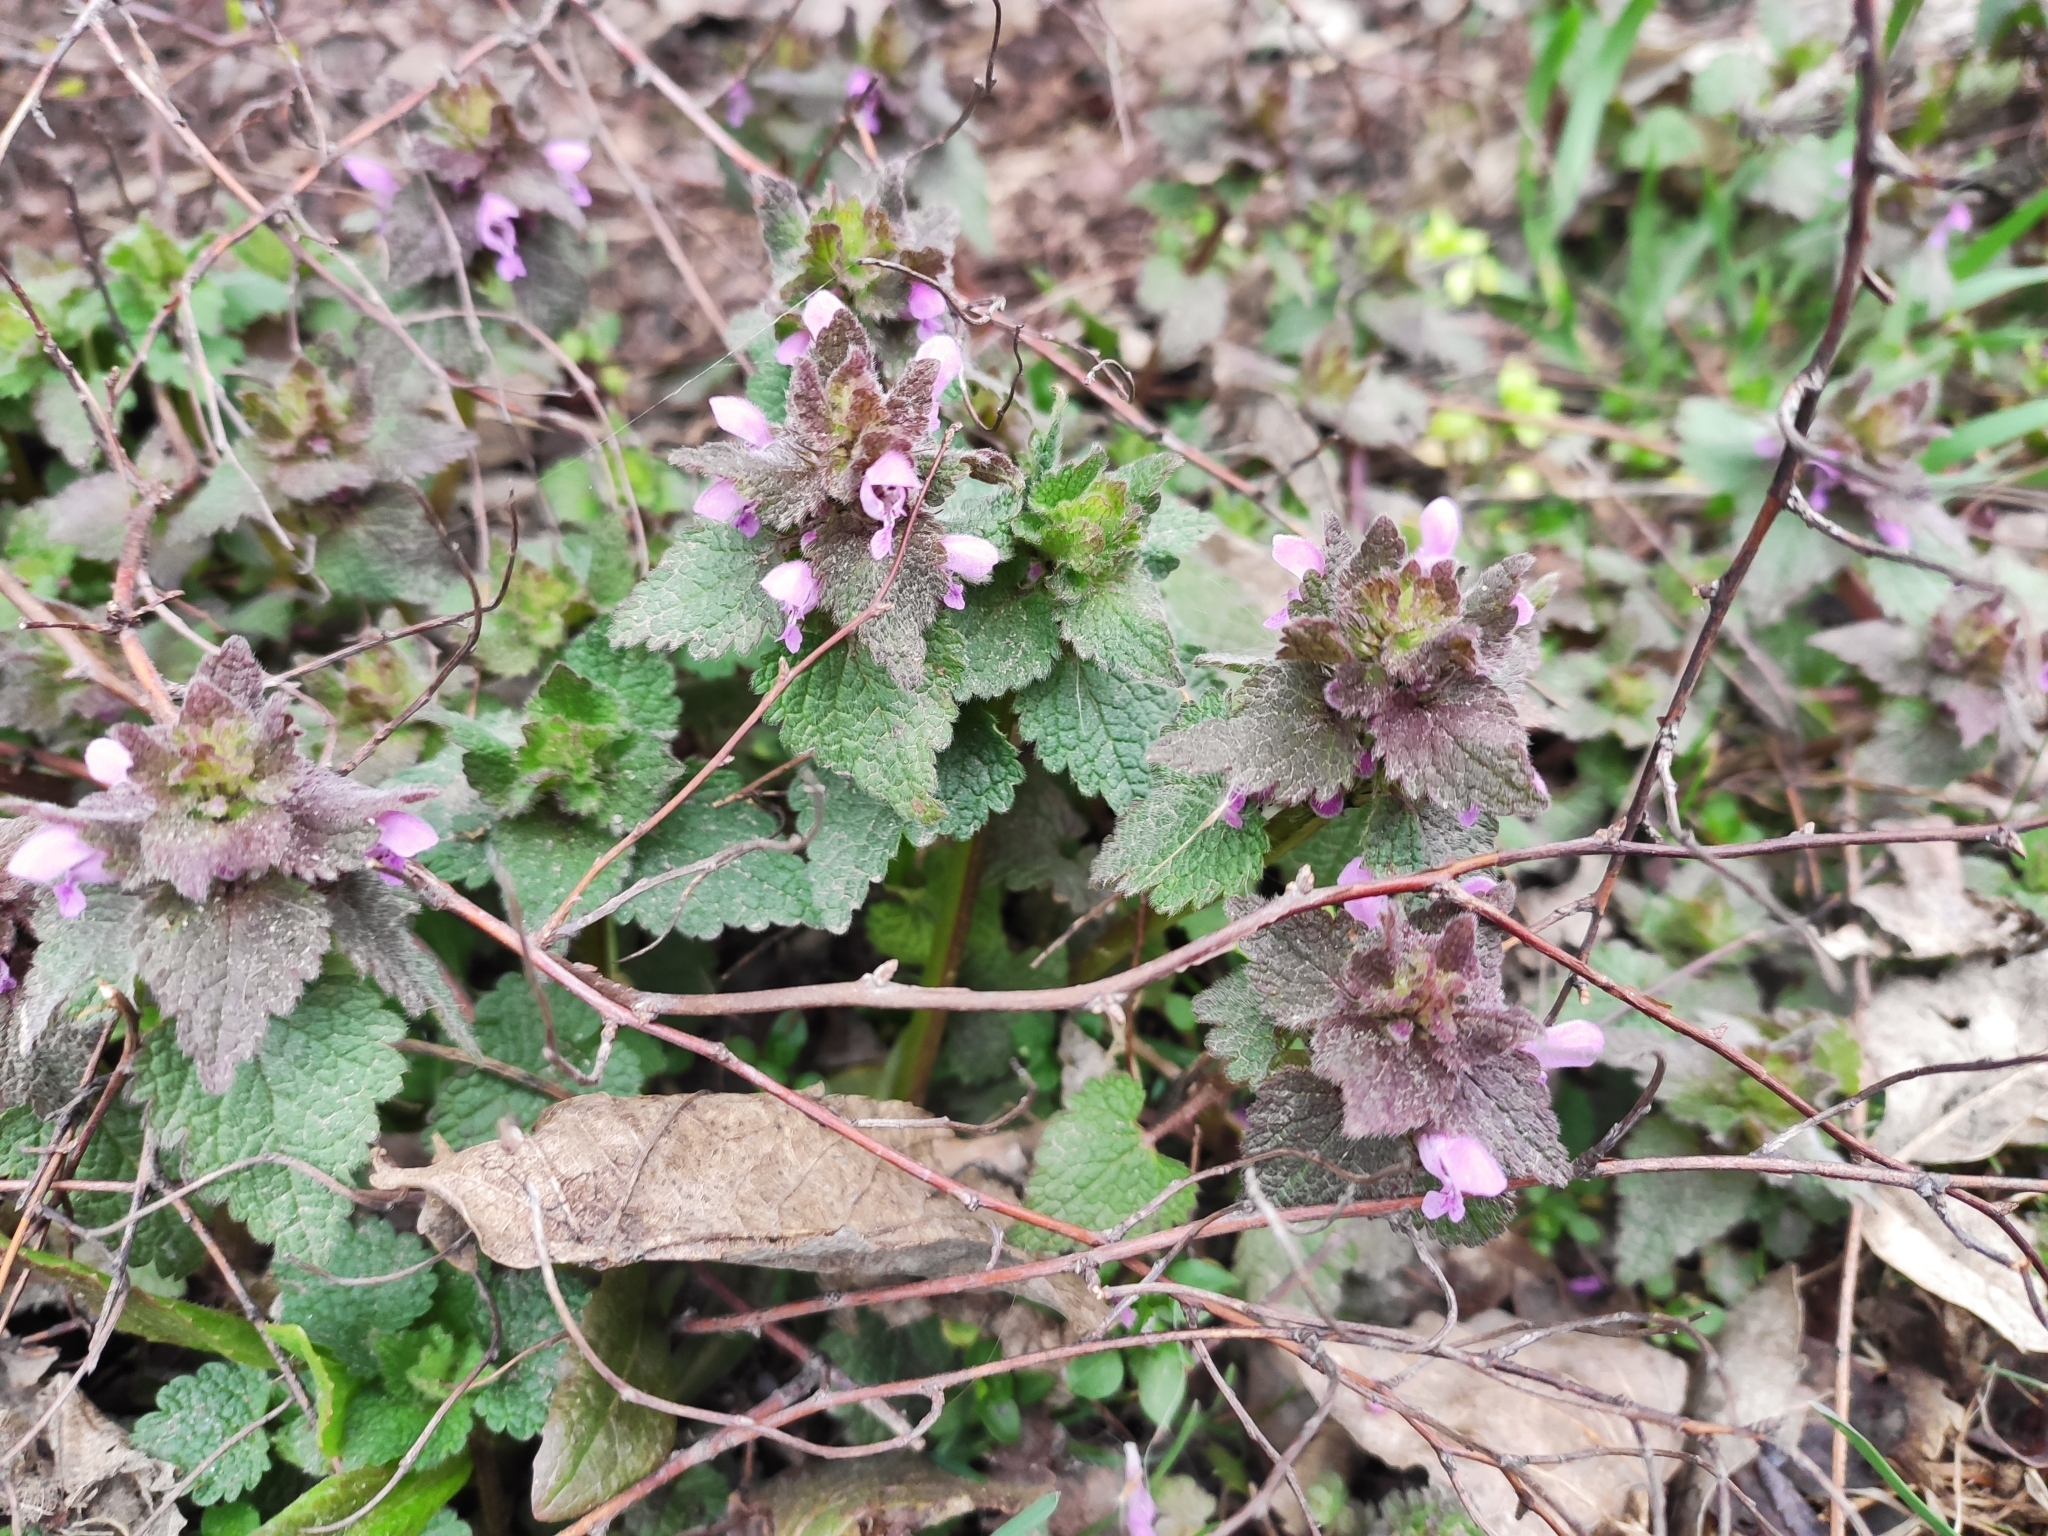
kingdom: Plantae
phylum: Tracheophyta
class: Magnoliopsida
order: Lamiales
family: Lamiaceae
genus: Lamium
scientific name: Lamium purpureum
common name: Red dead-nettle
